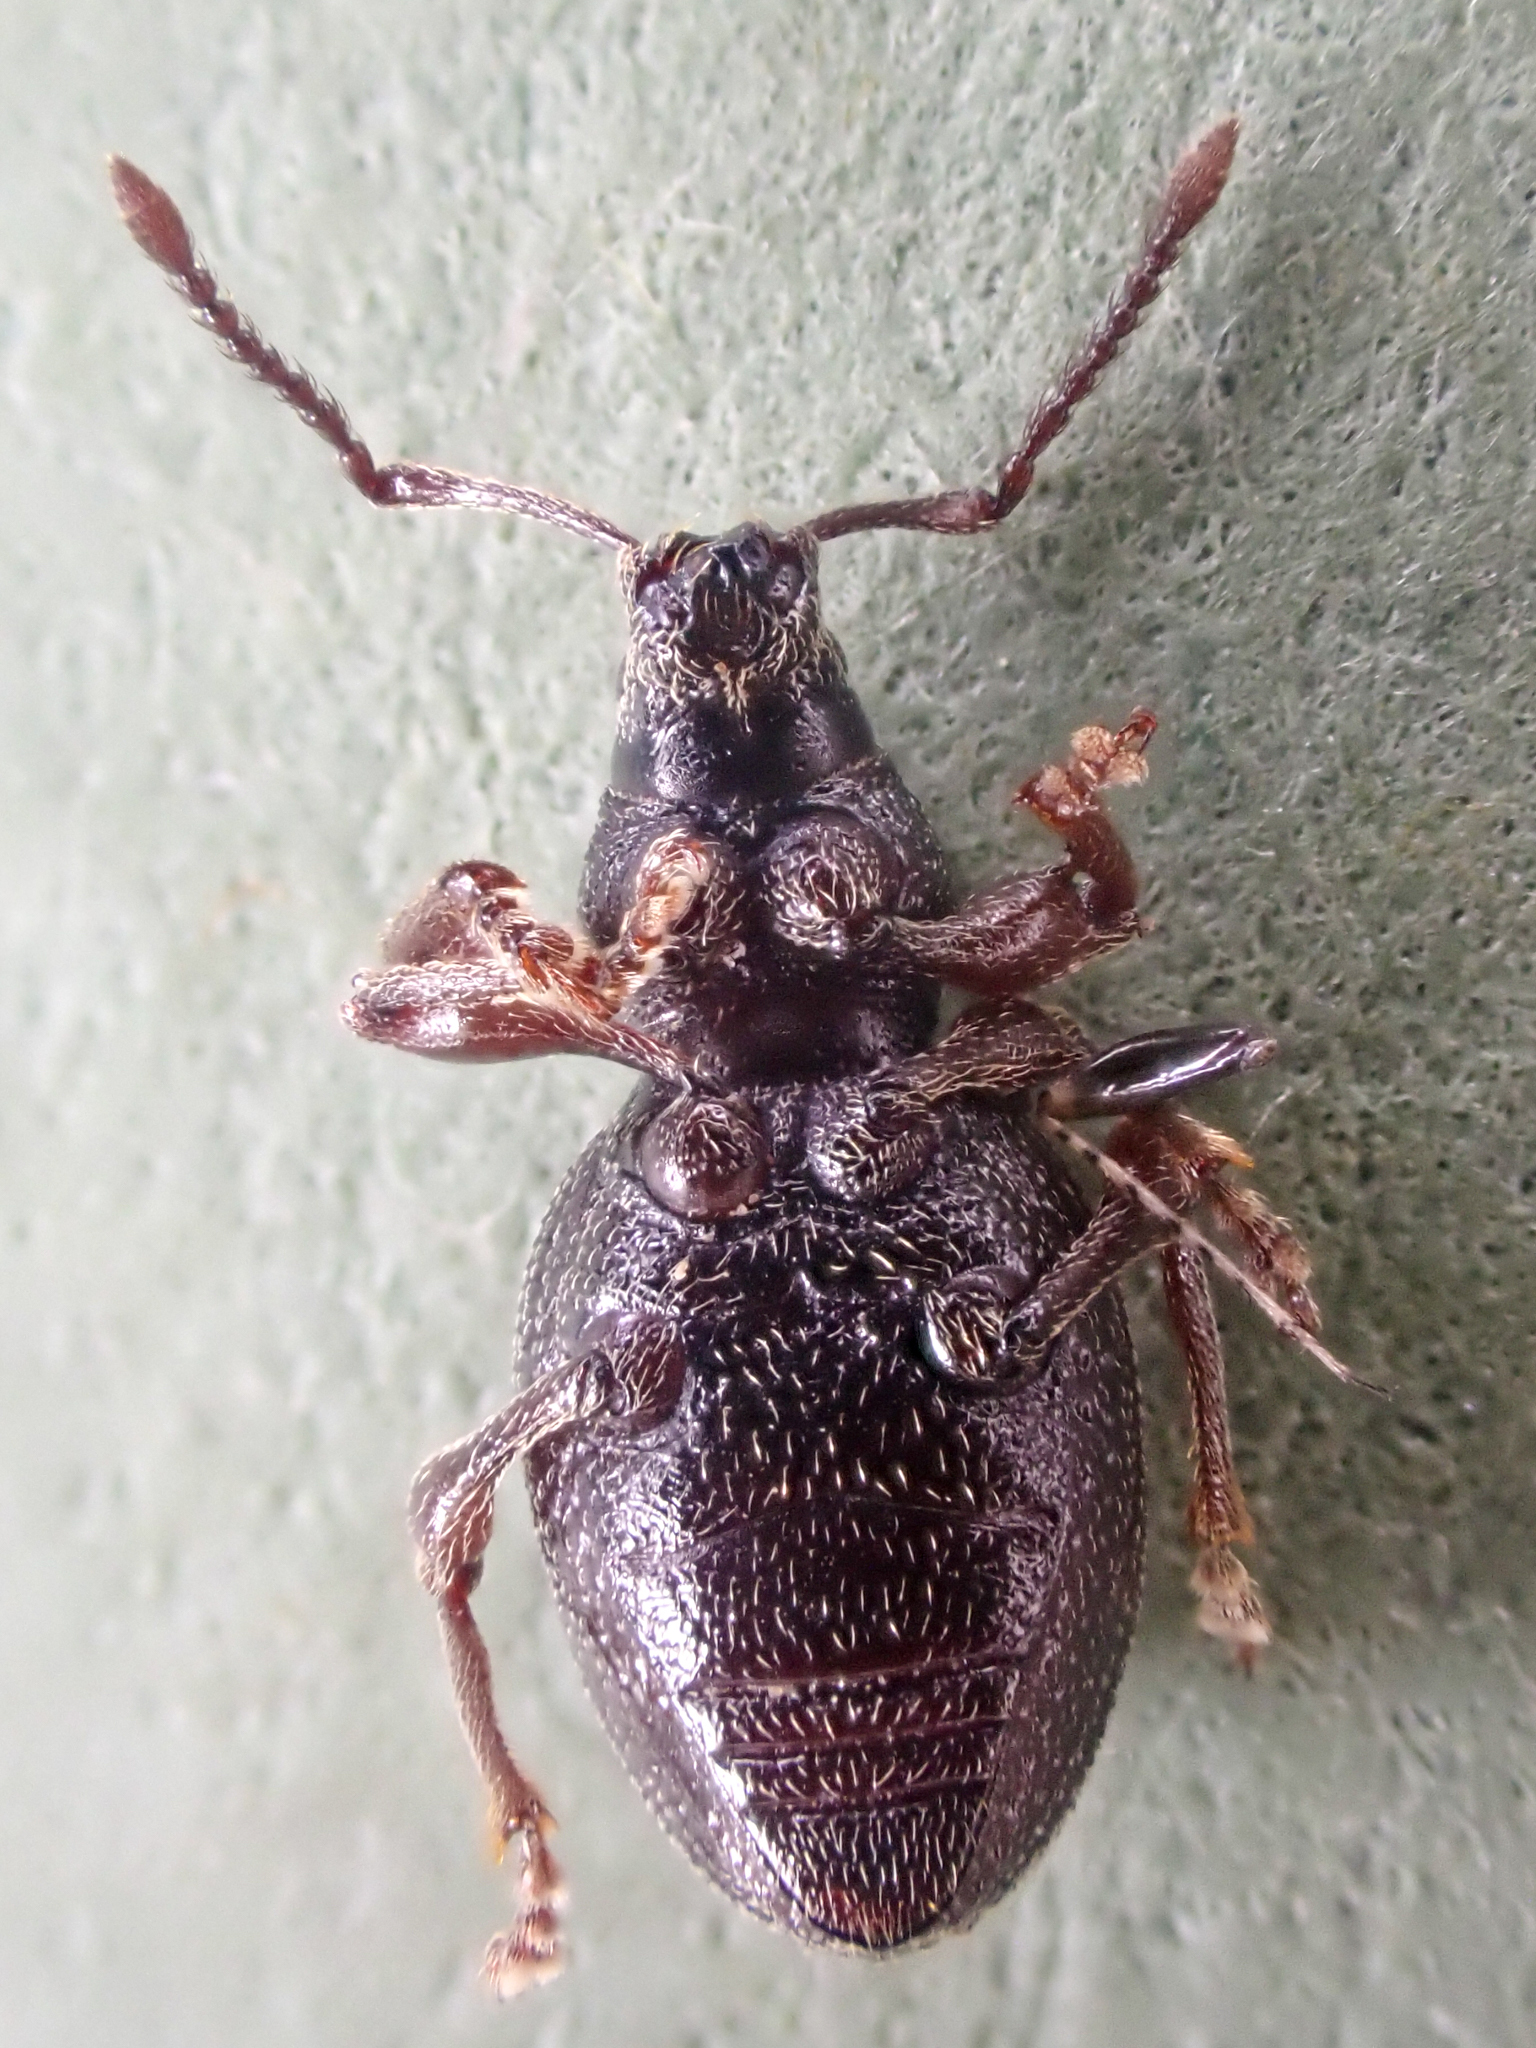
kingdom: Animalia
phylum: Arthropoda
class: Insecta
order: Coleoptera
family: Curculionidae
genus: Otiorhynchus
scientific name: Otiorhynchus ovatus
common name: Strawberry root weevil
